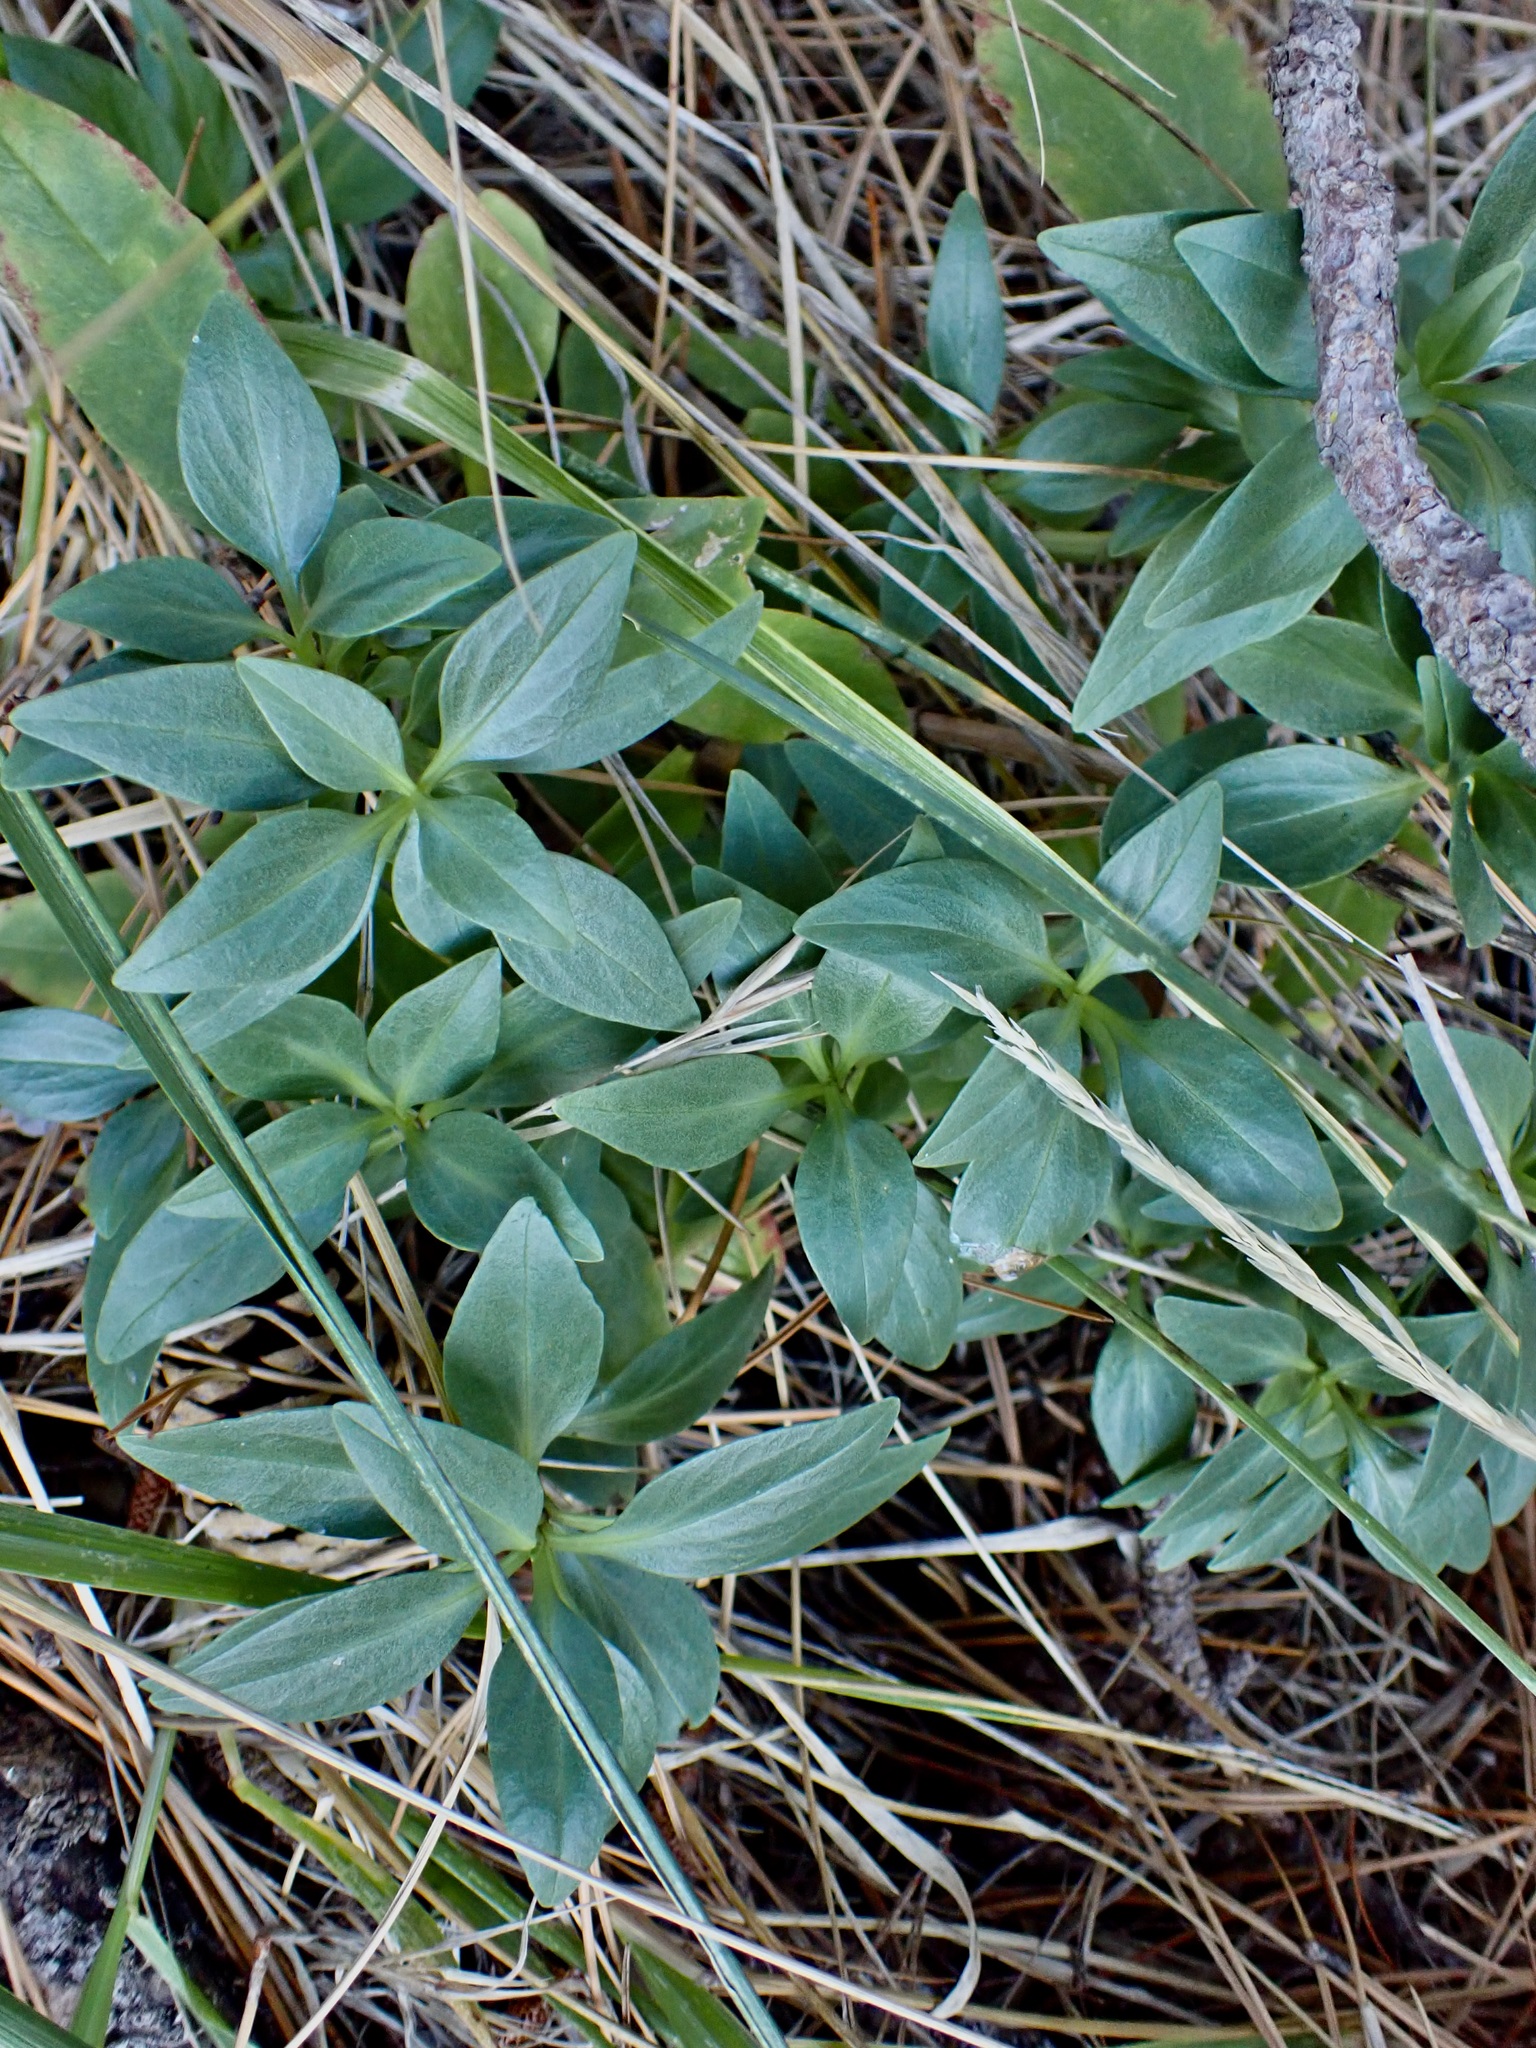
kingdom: Plantae
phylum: Tracheophyta
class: Magnoliopsida
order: Dipsacales
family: Caprifoliaceae
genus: Centranthus
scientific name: Centranthus ruber
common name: Red valerian
